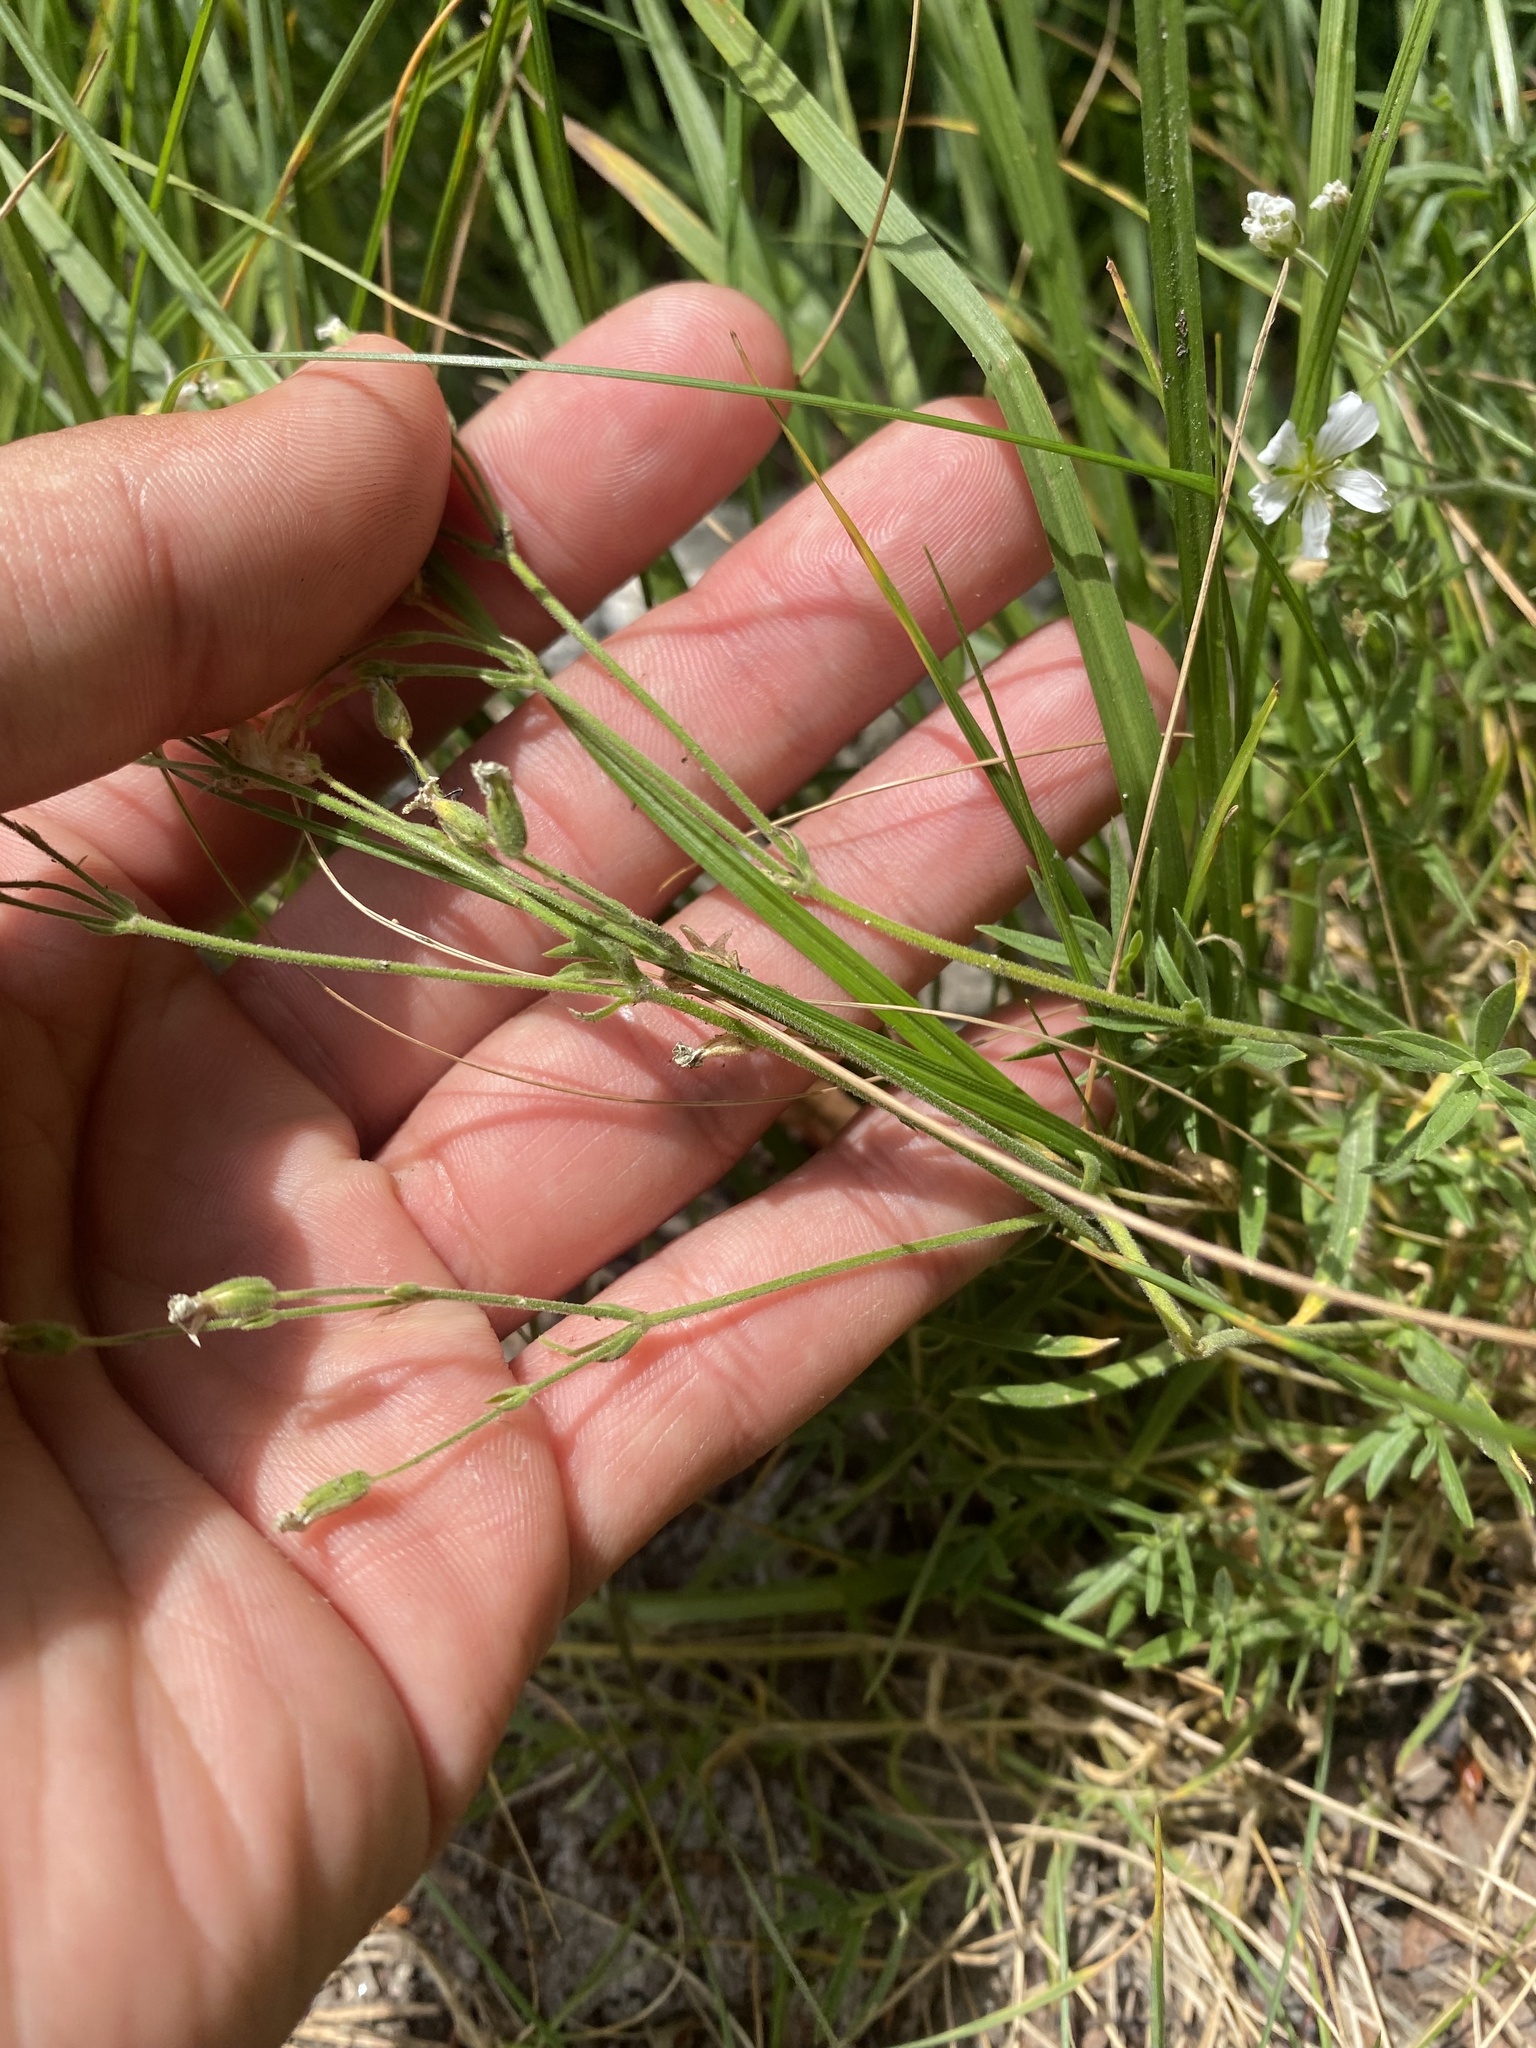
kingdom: Plantae
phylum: Tracheophyta
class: Magnoliopsida
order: Caryophyllales
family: Caryophyllaceae
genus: Cerastium
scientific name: Cerastium arvense
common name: Field mouse-ear
